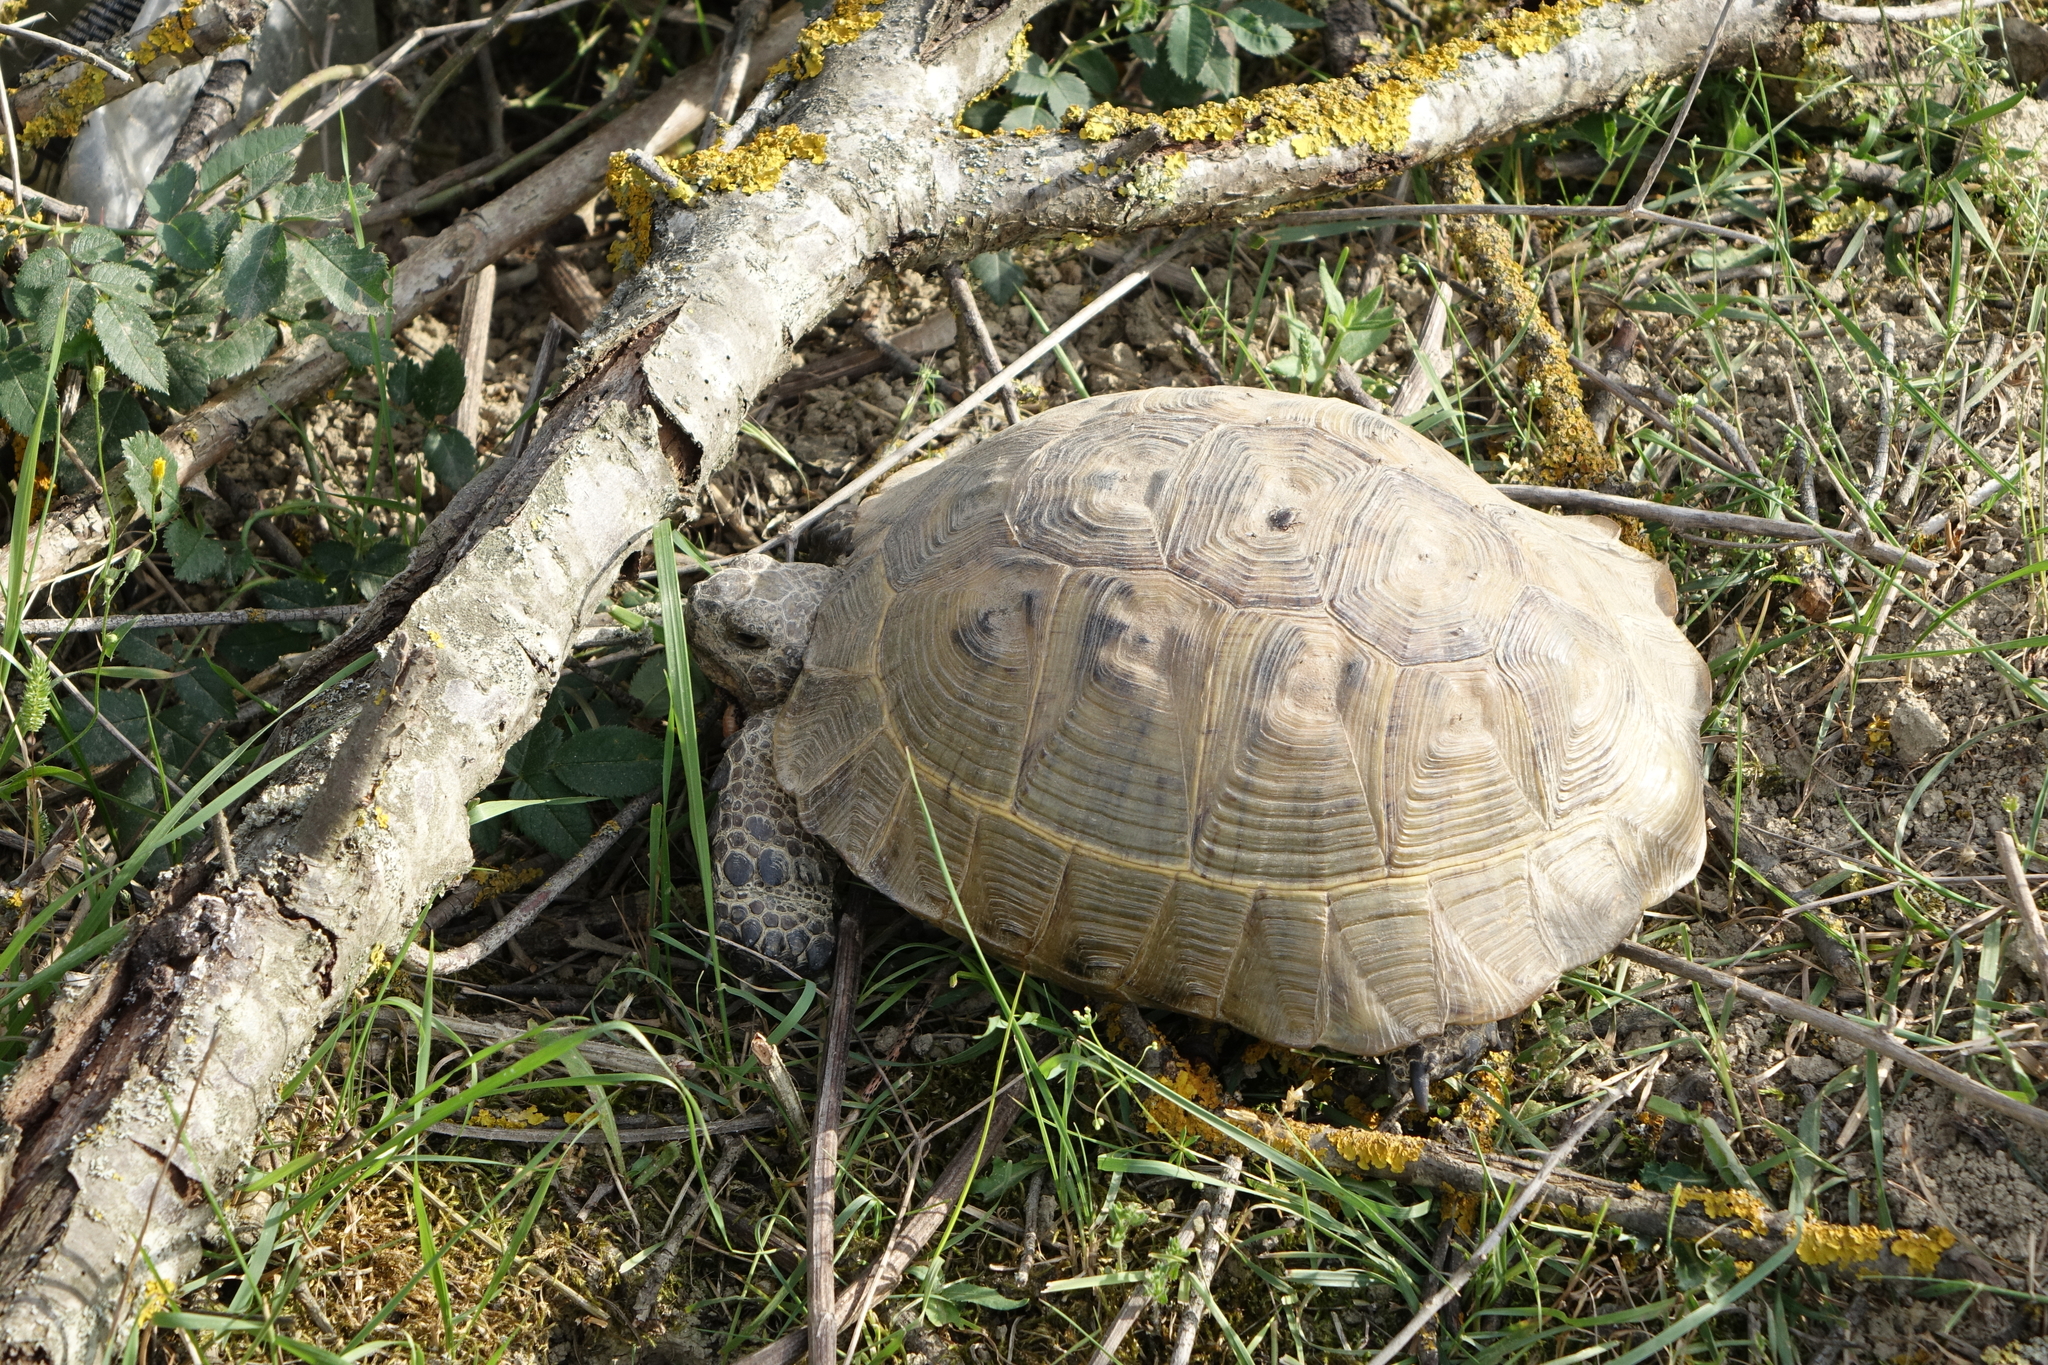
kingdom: Animalia
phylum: Chordata
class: Testudines
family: Testudinidae
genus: Testudo
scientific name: Testudo graeca
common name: Common tortoise
